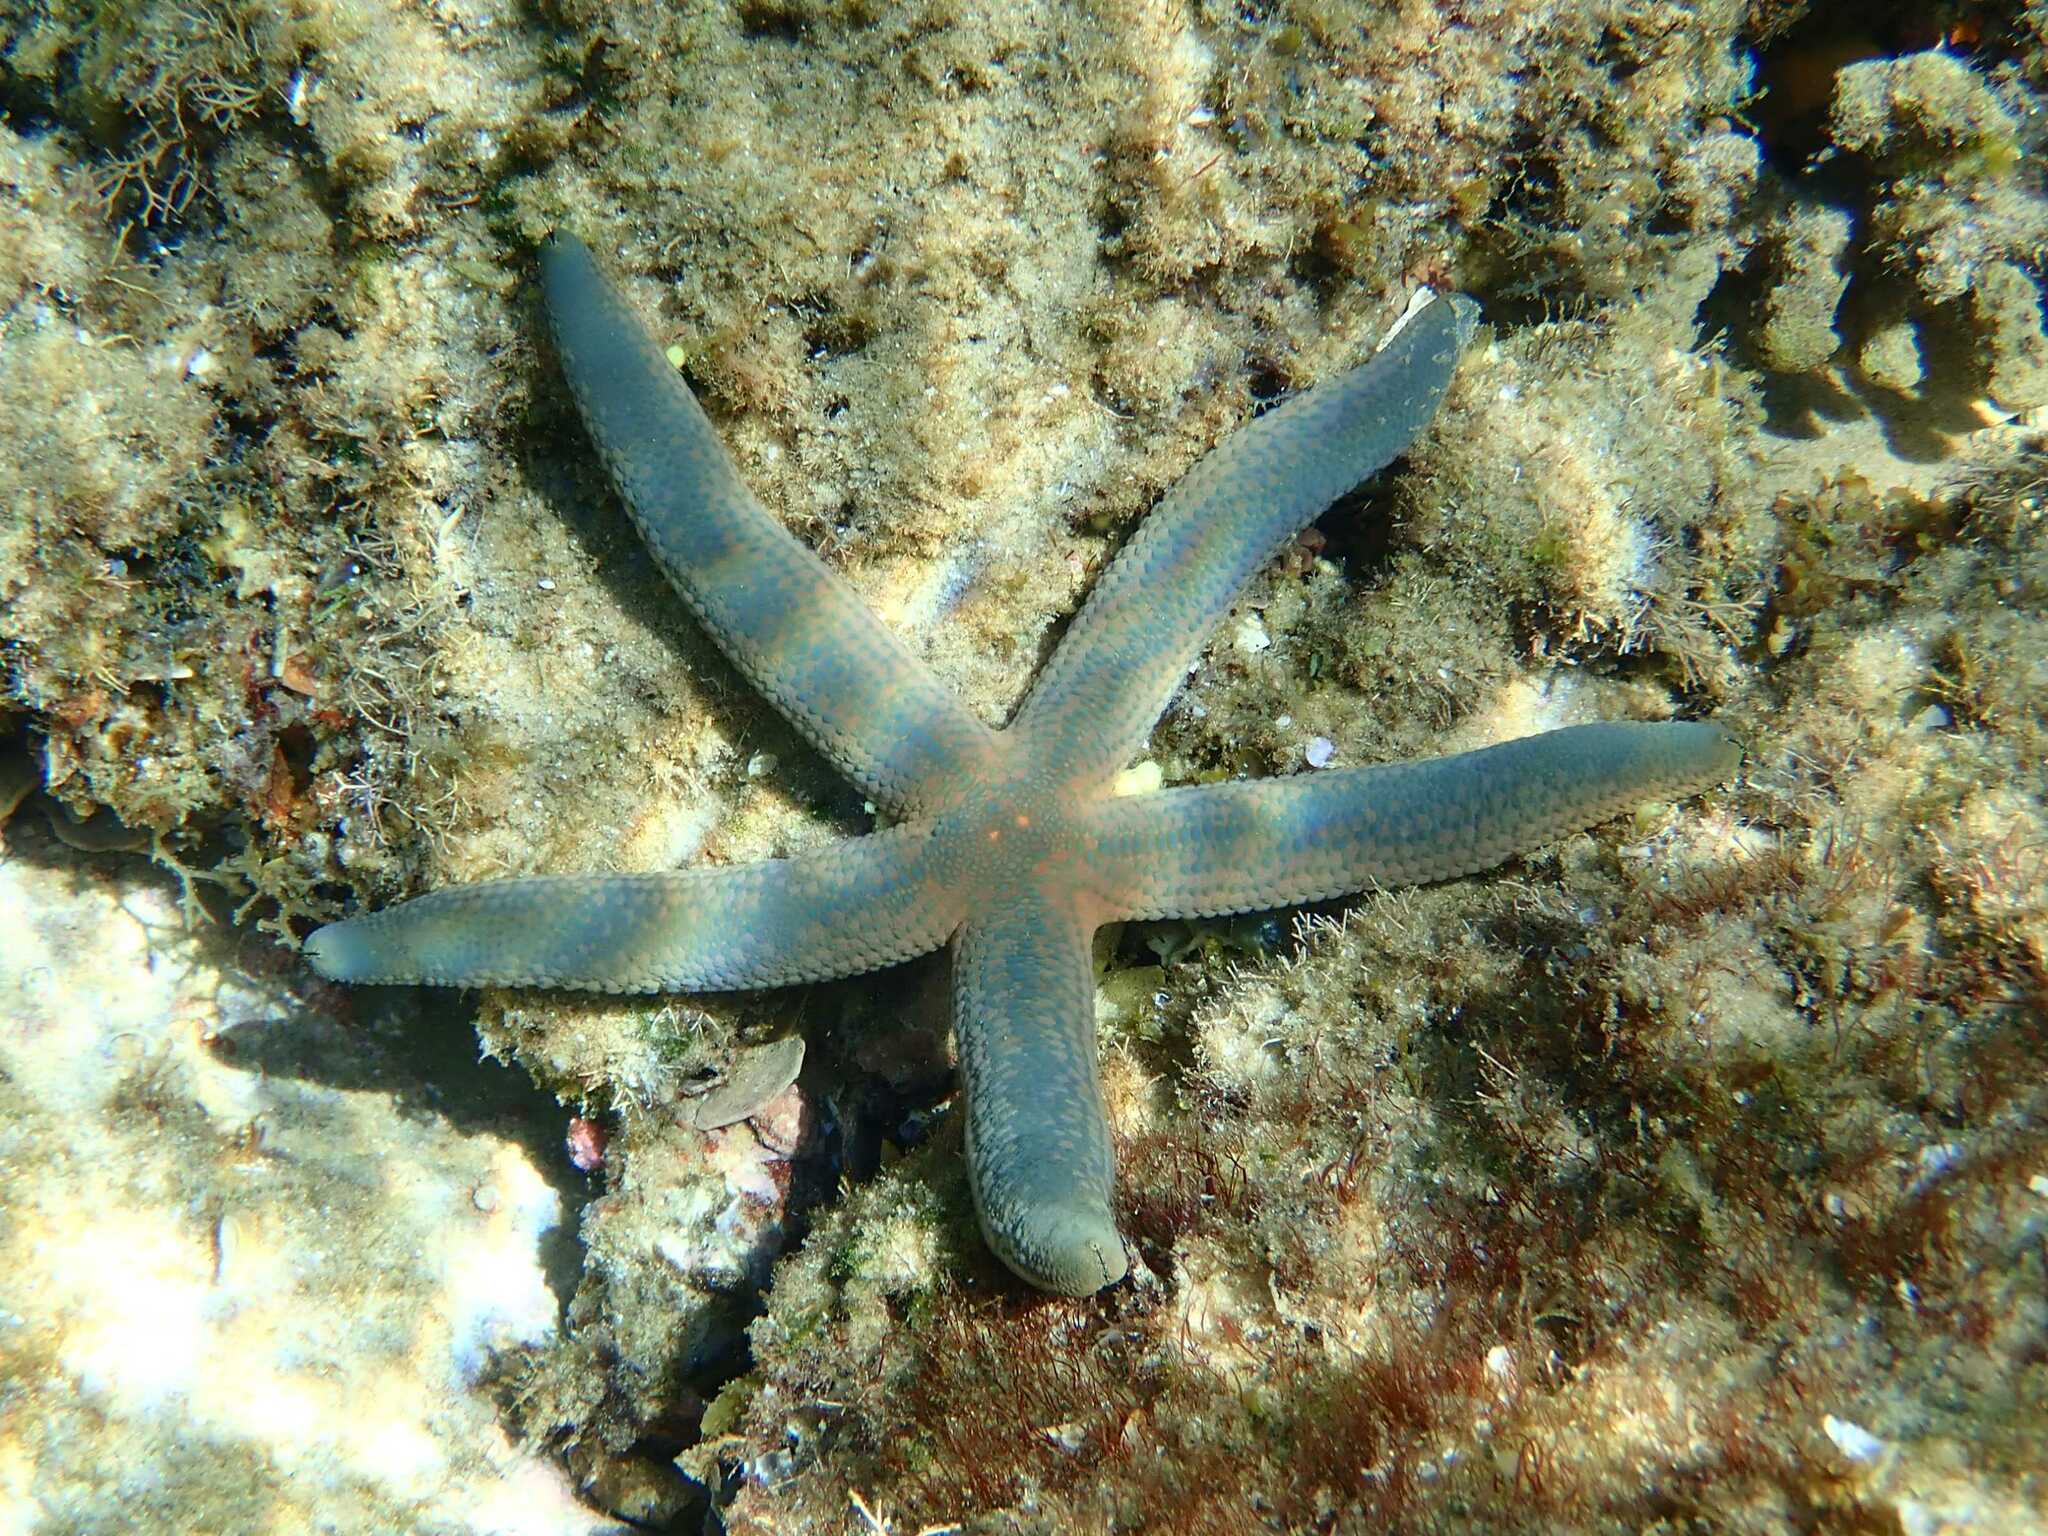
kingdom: Animalia
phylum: Echinodermata
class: Asteroidea
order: Valvatida
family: Ophidiasteridae
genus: Linckia
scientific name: Linckia laevigata
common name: Azure sea star
